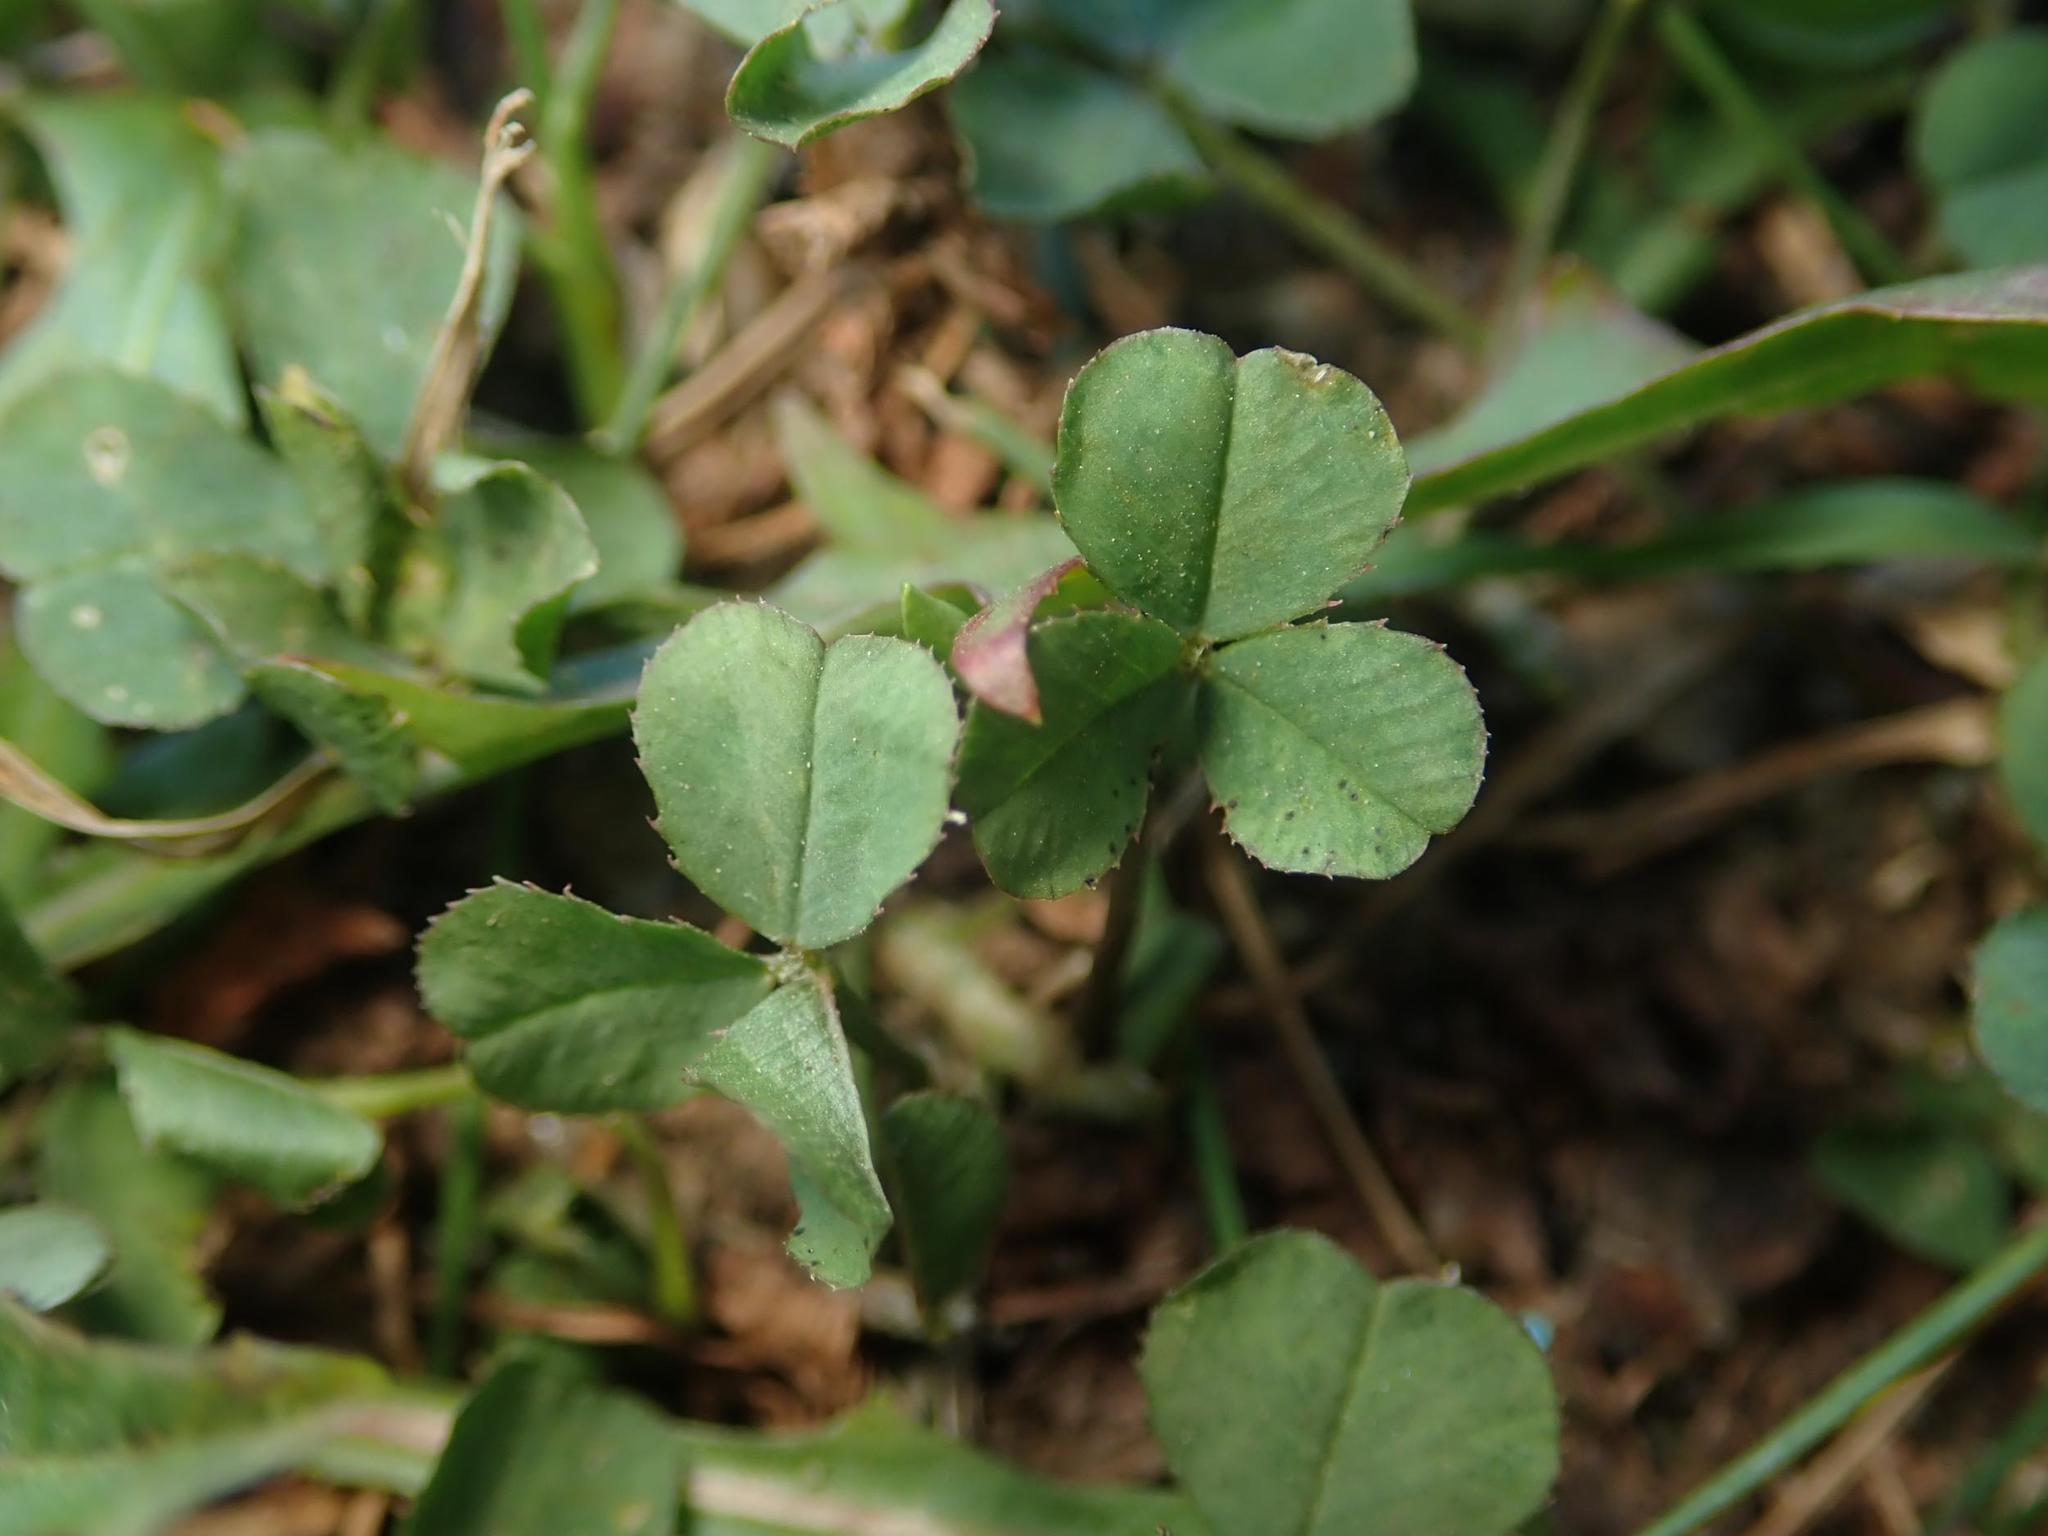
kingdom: Plantae
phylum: Tracheophyta
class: Magnoliopsida
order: Fabales
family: Fabaceae
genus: Trifolium
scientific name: Trifolium repens
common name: White clover
